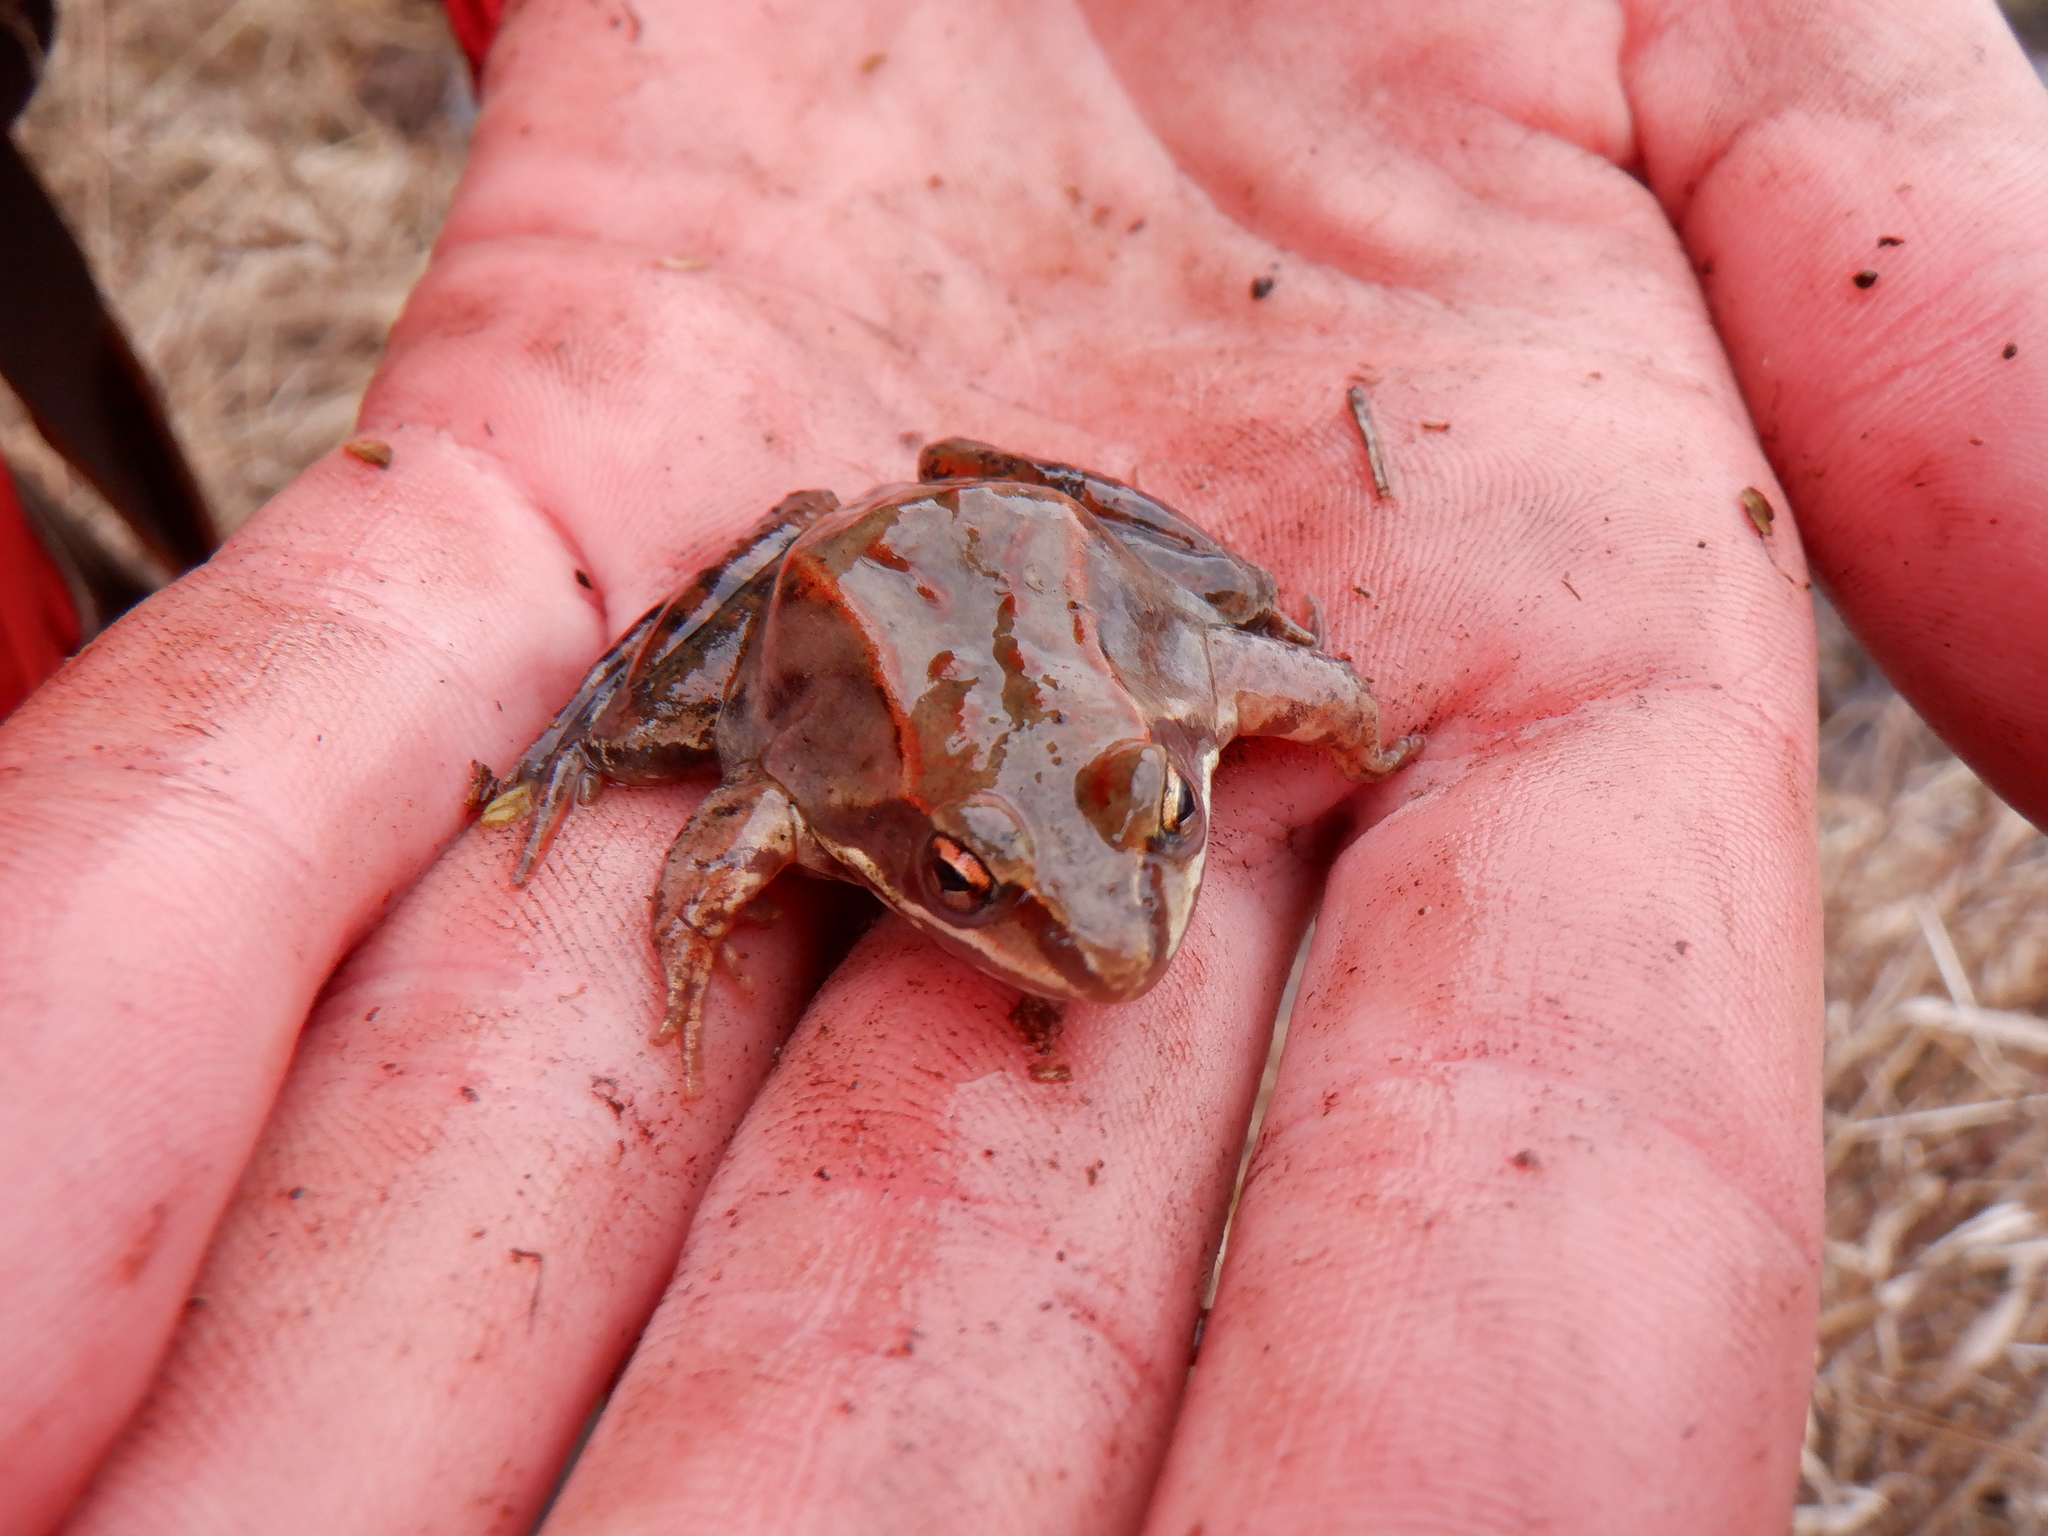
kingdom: Animalia
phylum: Chordata
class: Amphibia
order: Anura
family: Ranidae
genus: Lithobates
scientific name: Lithobates sylvaticus
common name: Wood frog
